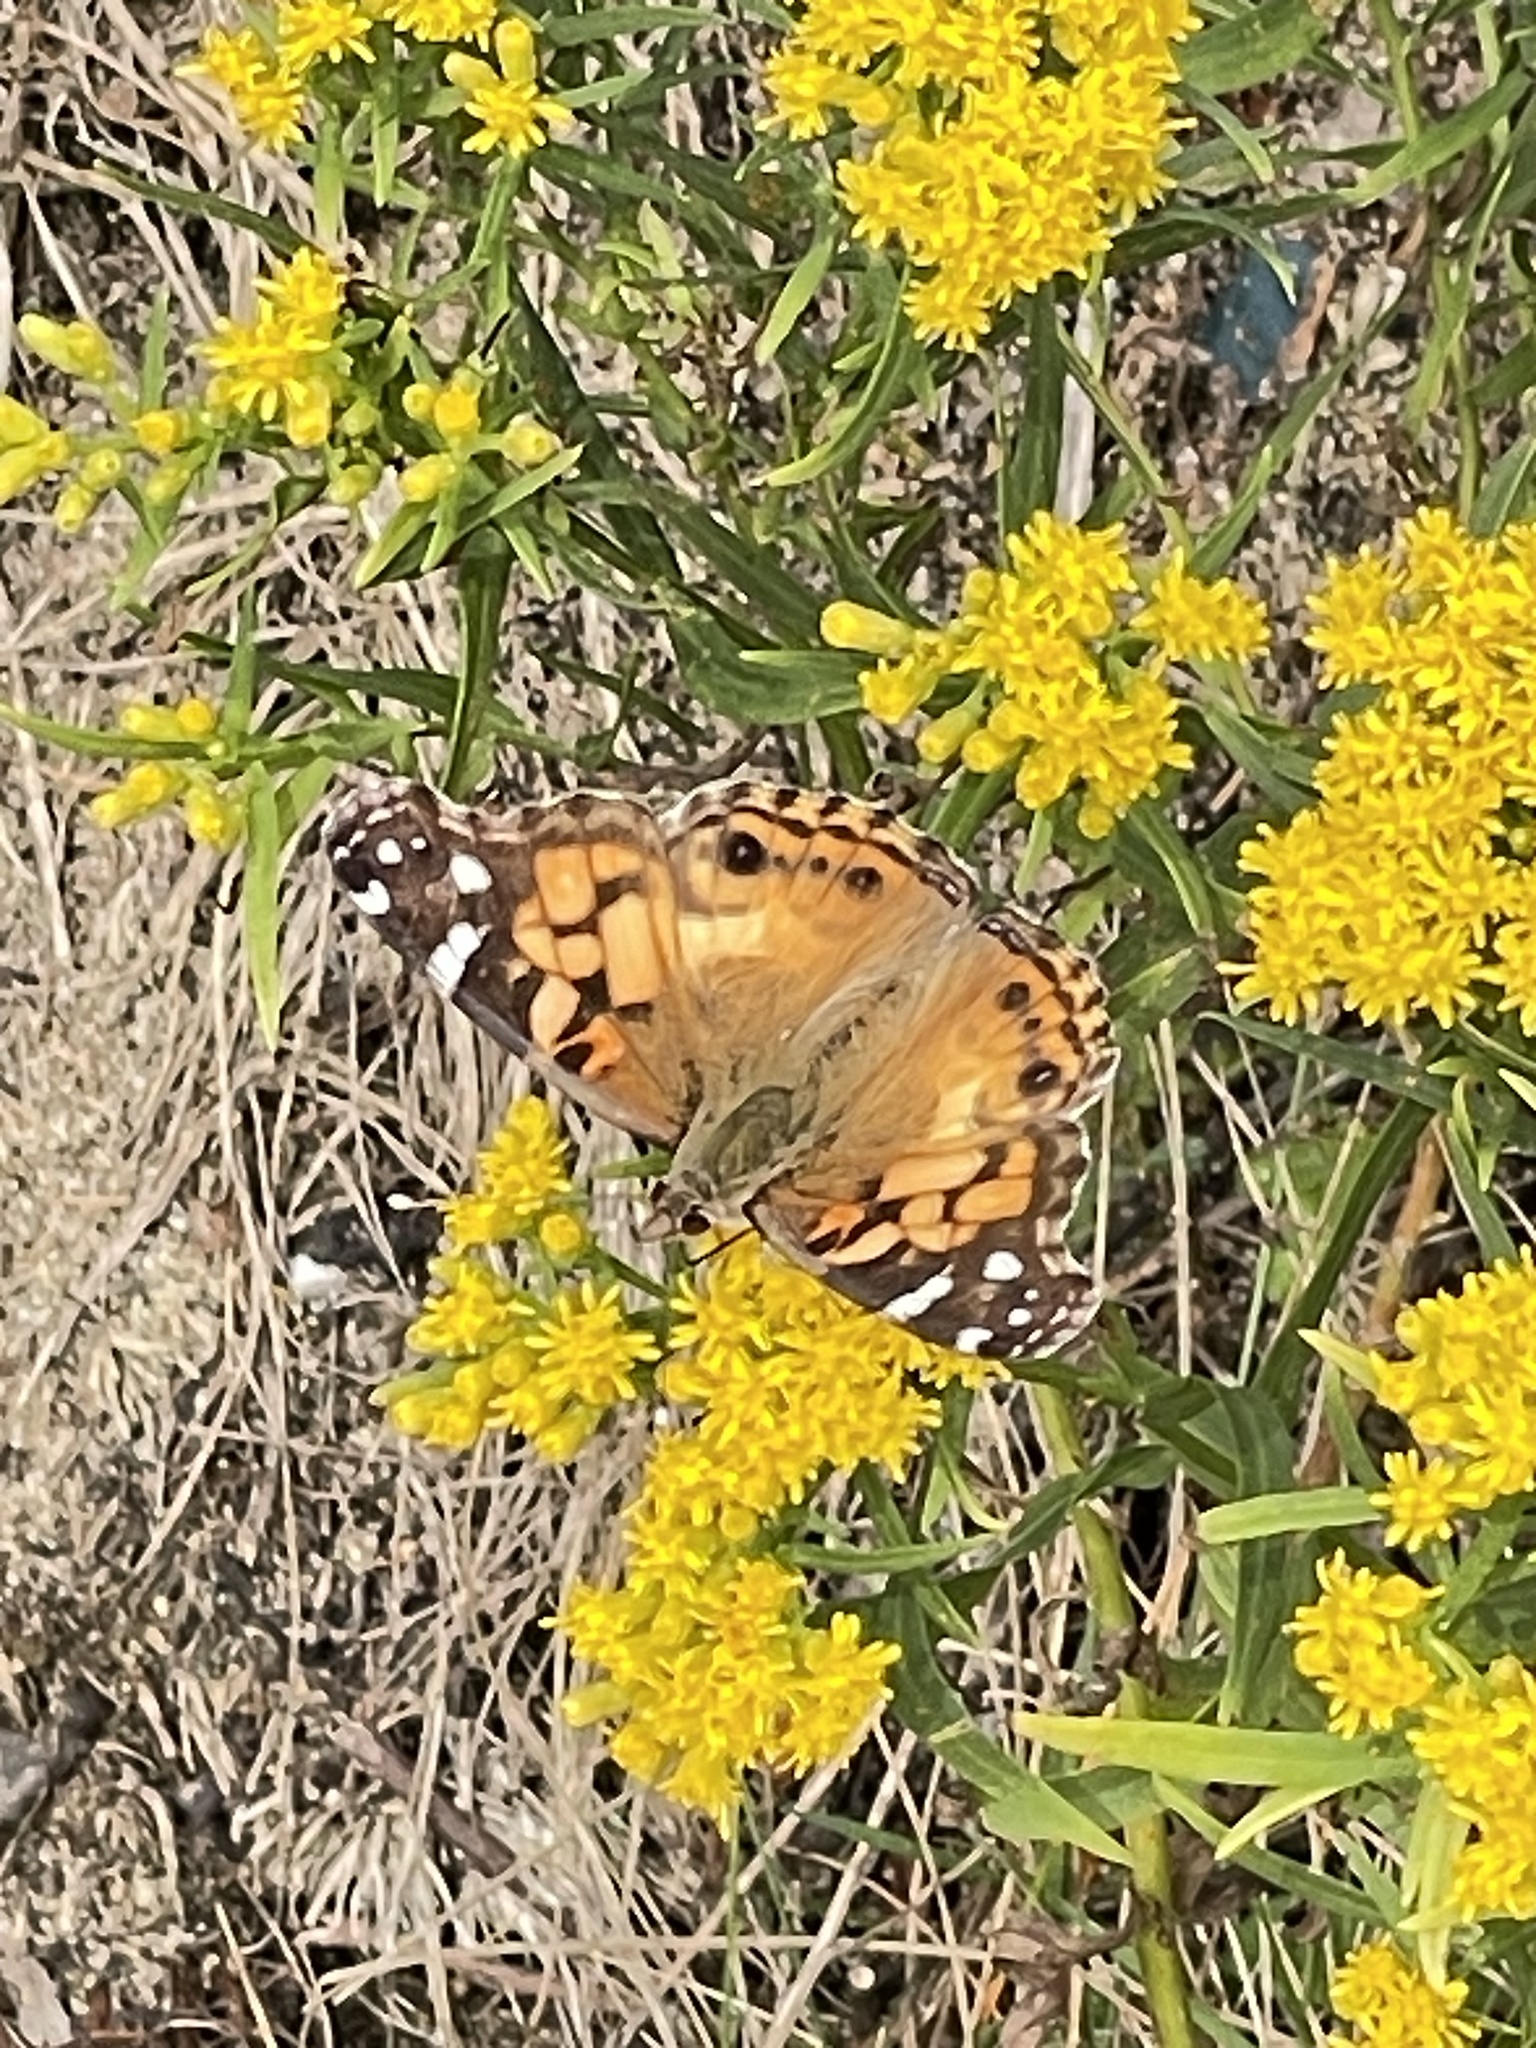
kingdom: Animalia
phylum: Arthropoda
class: Insecta
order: Lepidoptera
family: Nymphalidae
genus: Vanessa
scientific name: Vanessa virginiensis
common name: American lady
